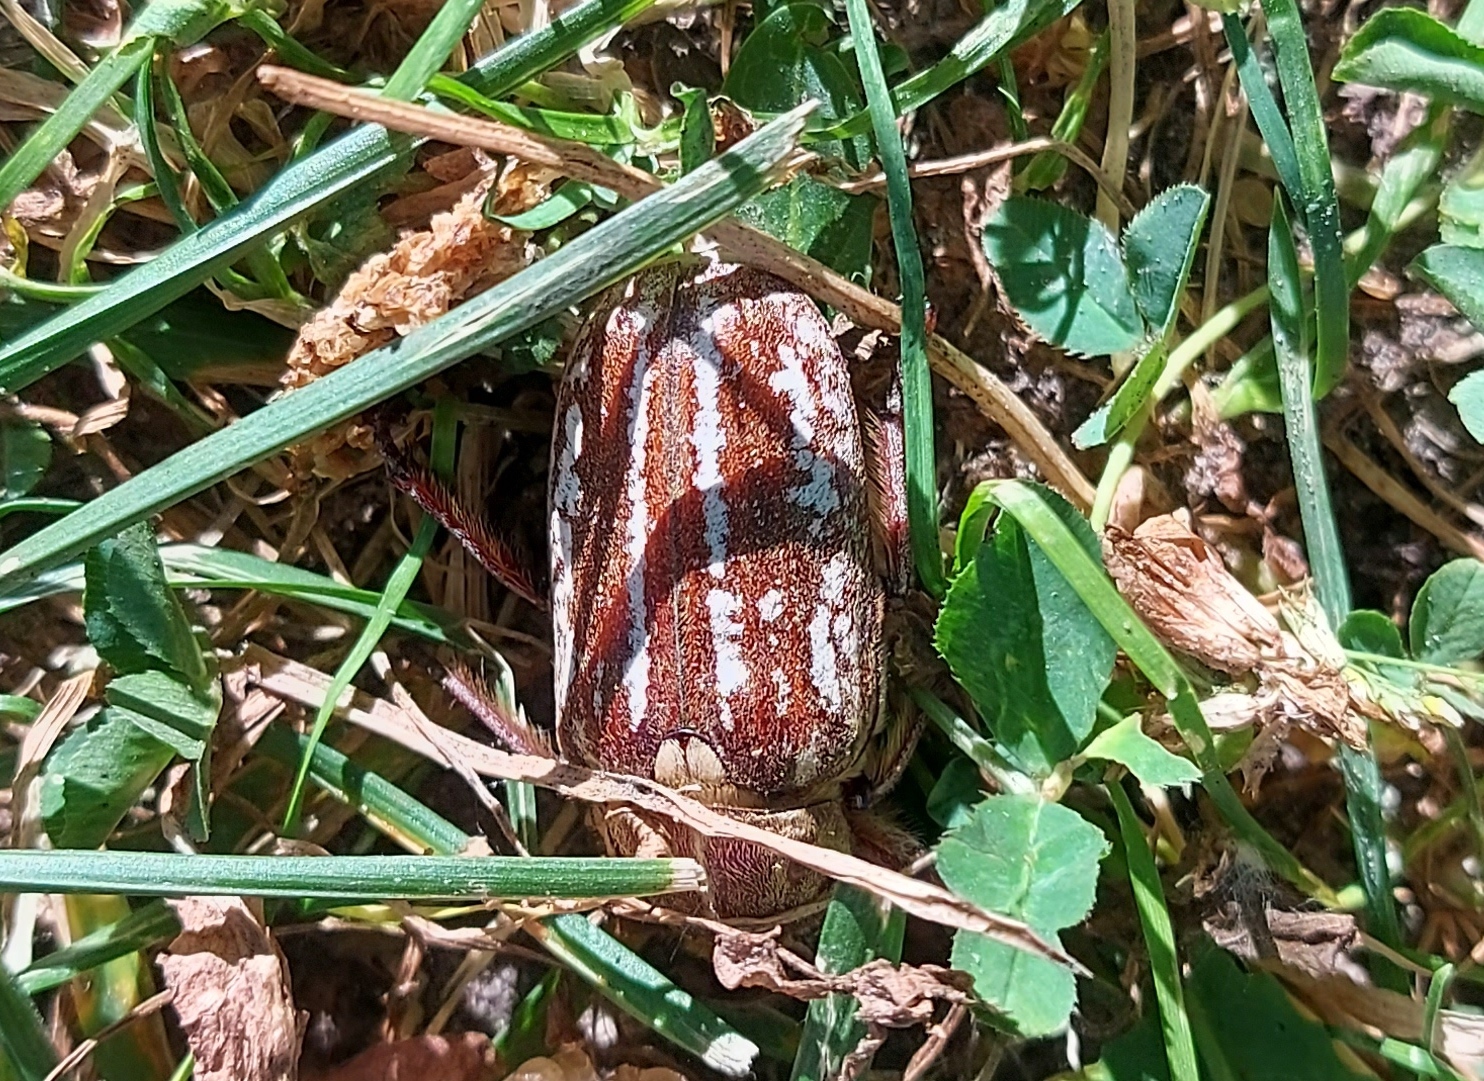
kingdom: Animalia
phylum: Arthropoda
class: Insecta
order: Coleoptera
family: Scarabaeidae
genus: Anoxia
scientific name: Anoxia orientalis
